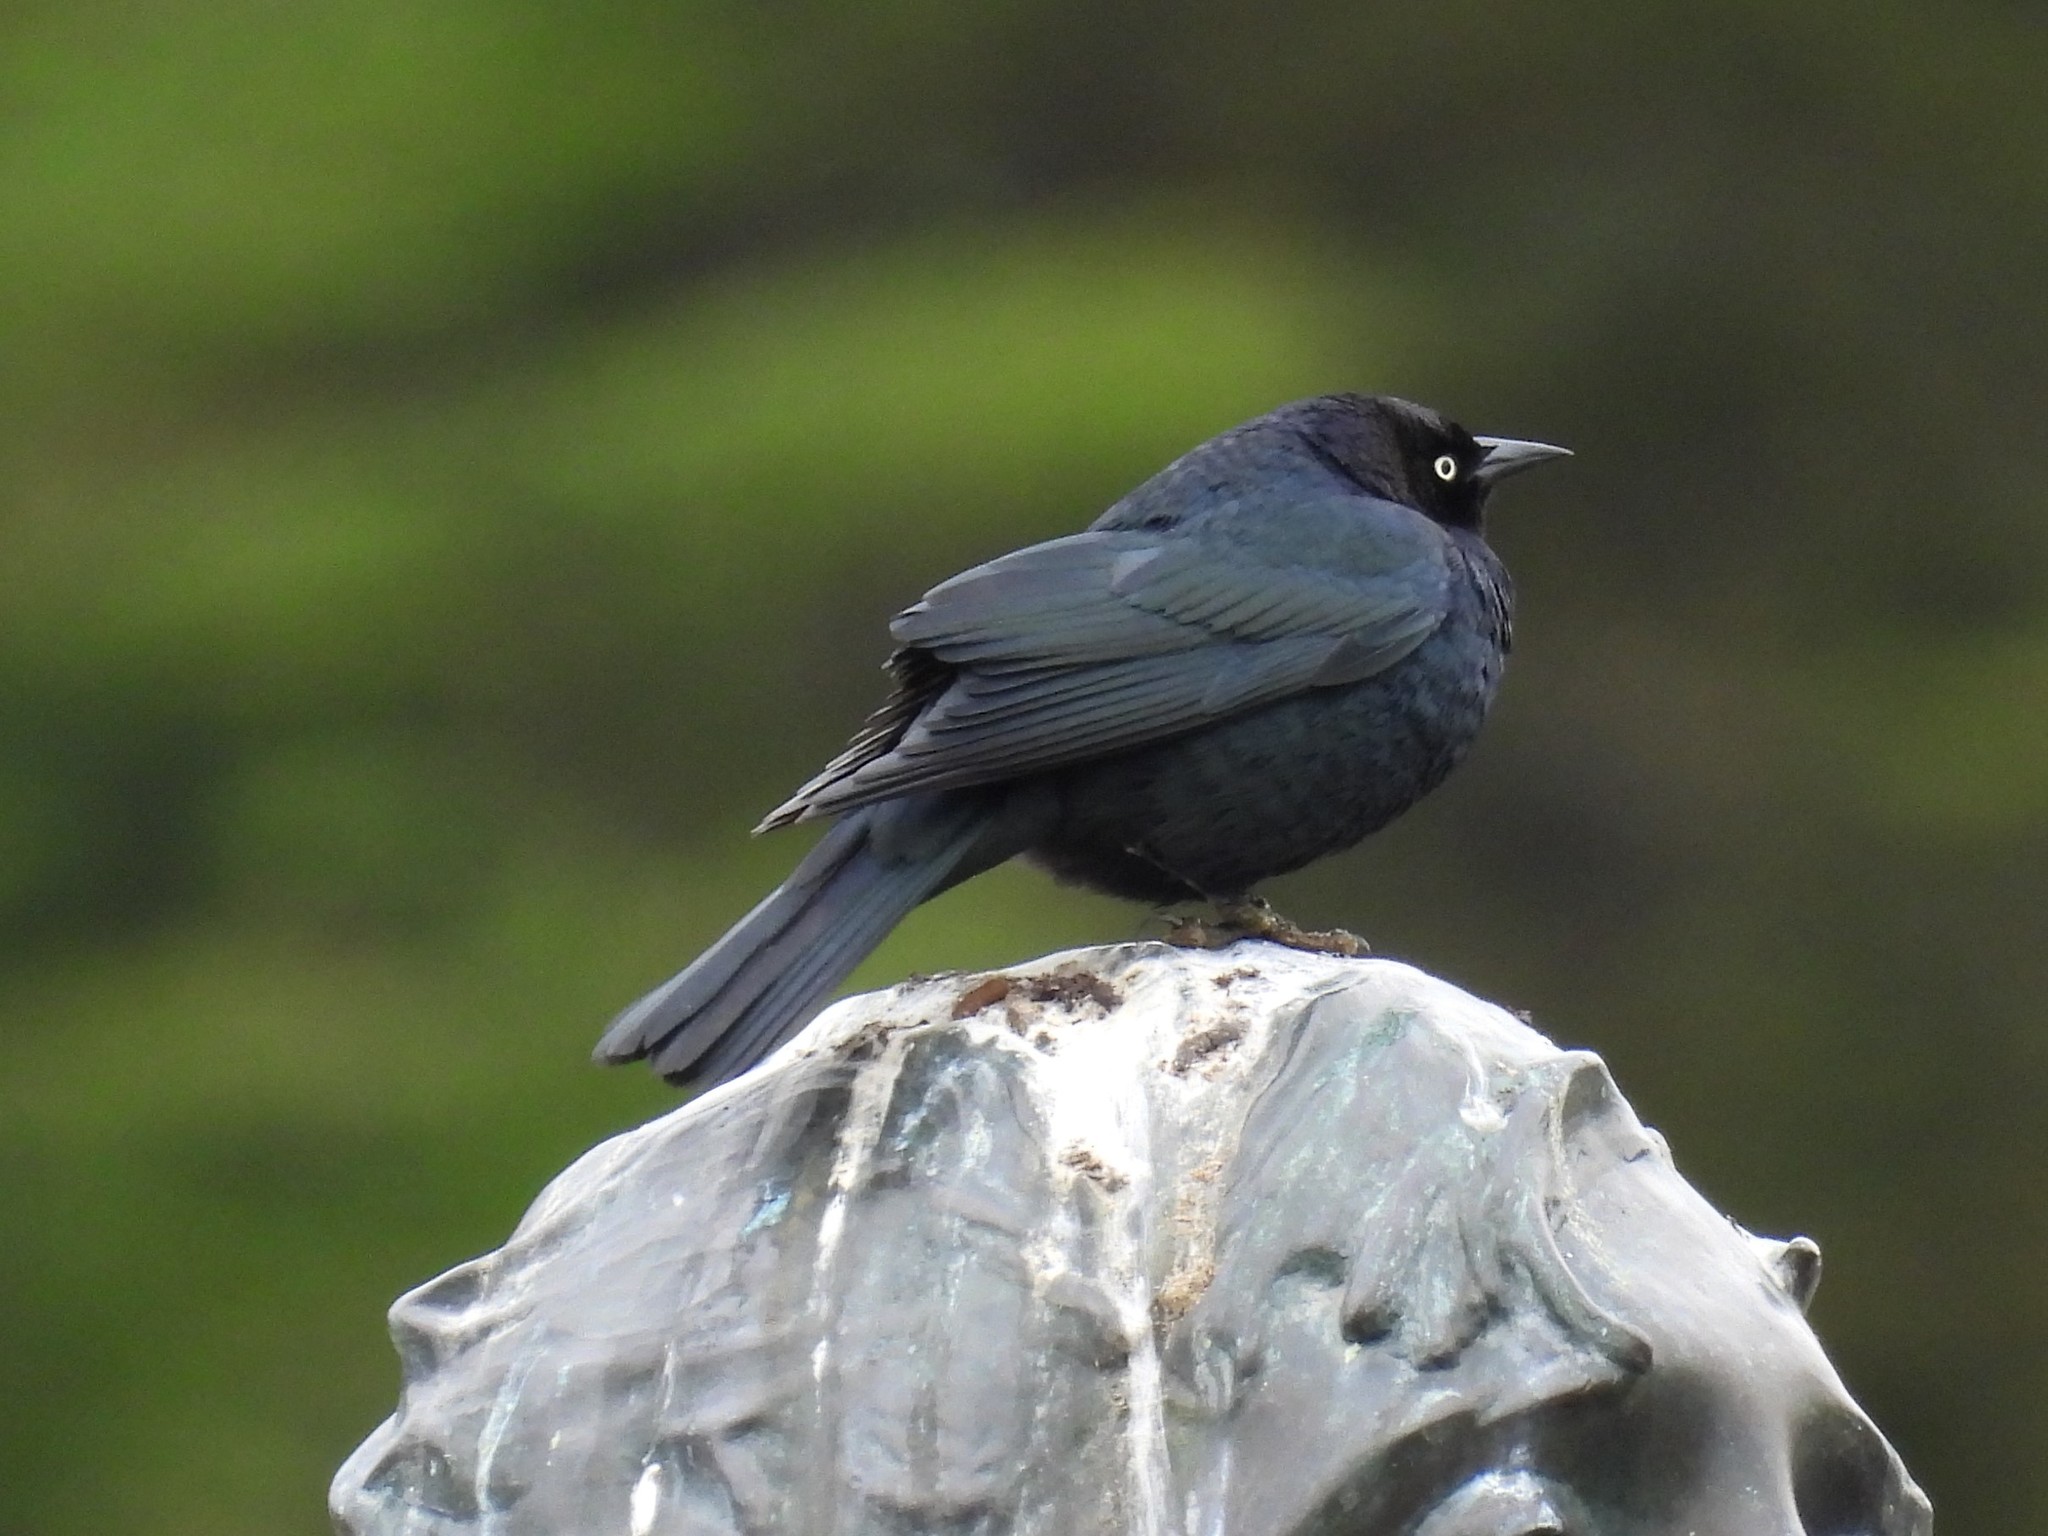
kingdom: Animalia
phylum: Chordata
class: Aves
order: Passeriformes
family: Icteridae
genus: Euphagus
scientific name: Euphagus cyanocephalus
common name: Brewer's blackbird
